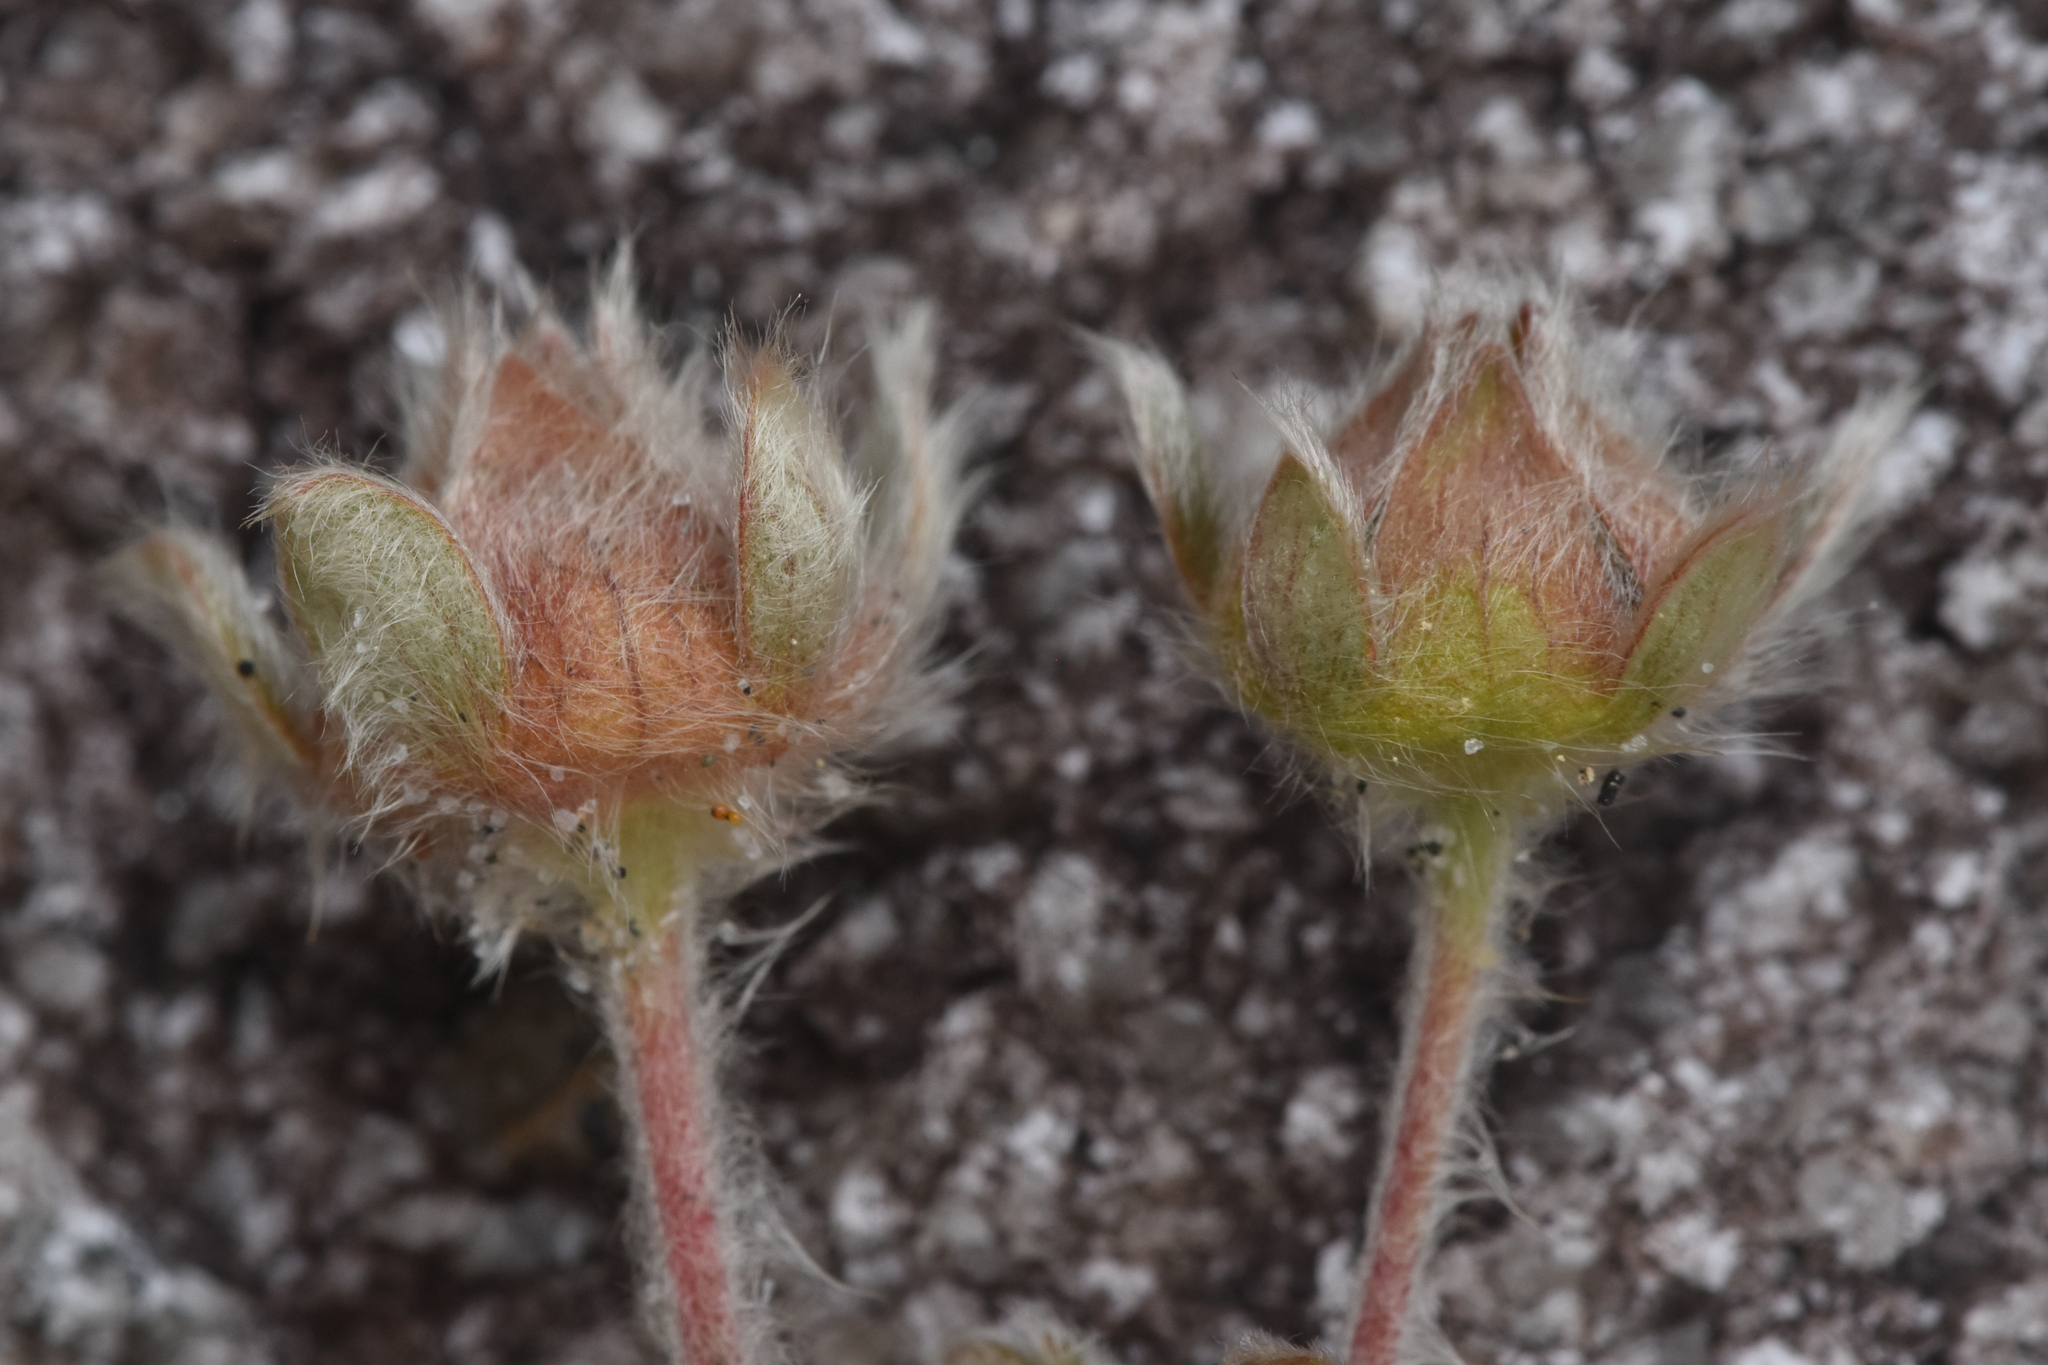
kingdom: Plantae
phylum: Tracheophyta
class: Magnoliopsida
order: Rosales
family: Rosaceae
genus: Potentilla
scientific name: Potentilla villosa
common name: Northern cinquefoil
